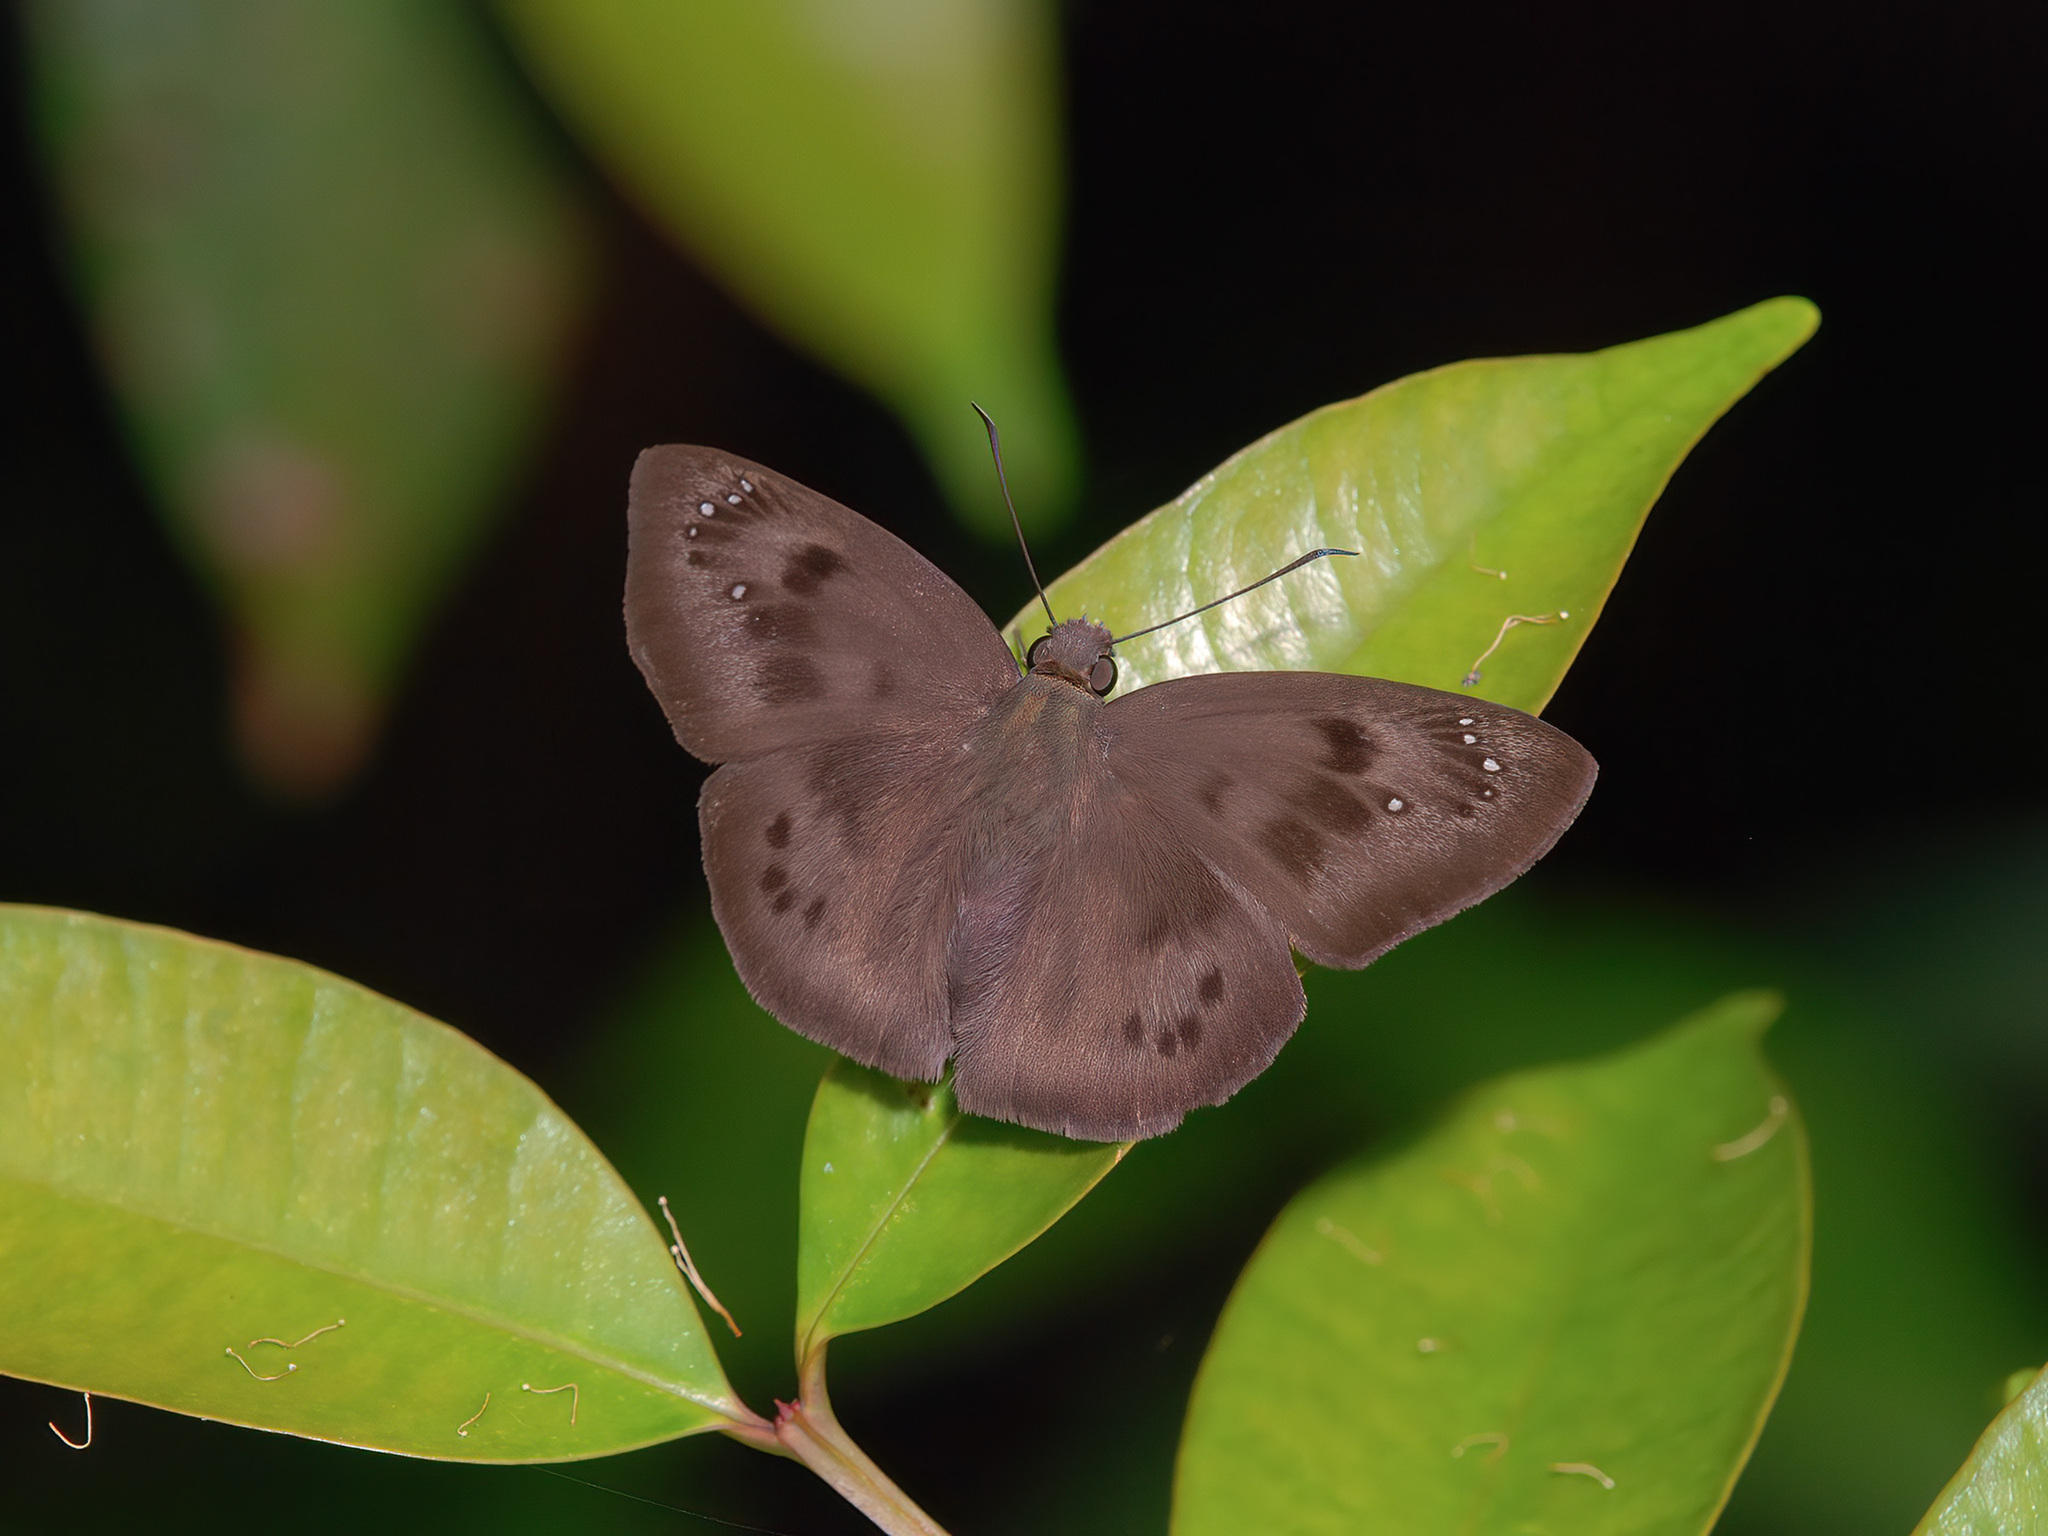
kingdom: Animalia
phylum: Arthropoda
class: Insecta
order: Lepidoptera
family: Hesperiidae
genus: Tagiades
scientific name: Tagiades japetus
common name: Pied flat
